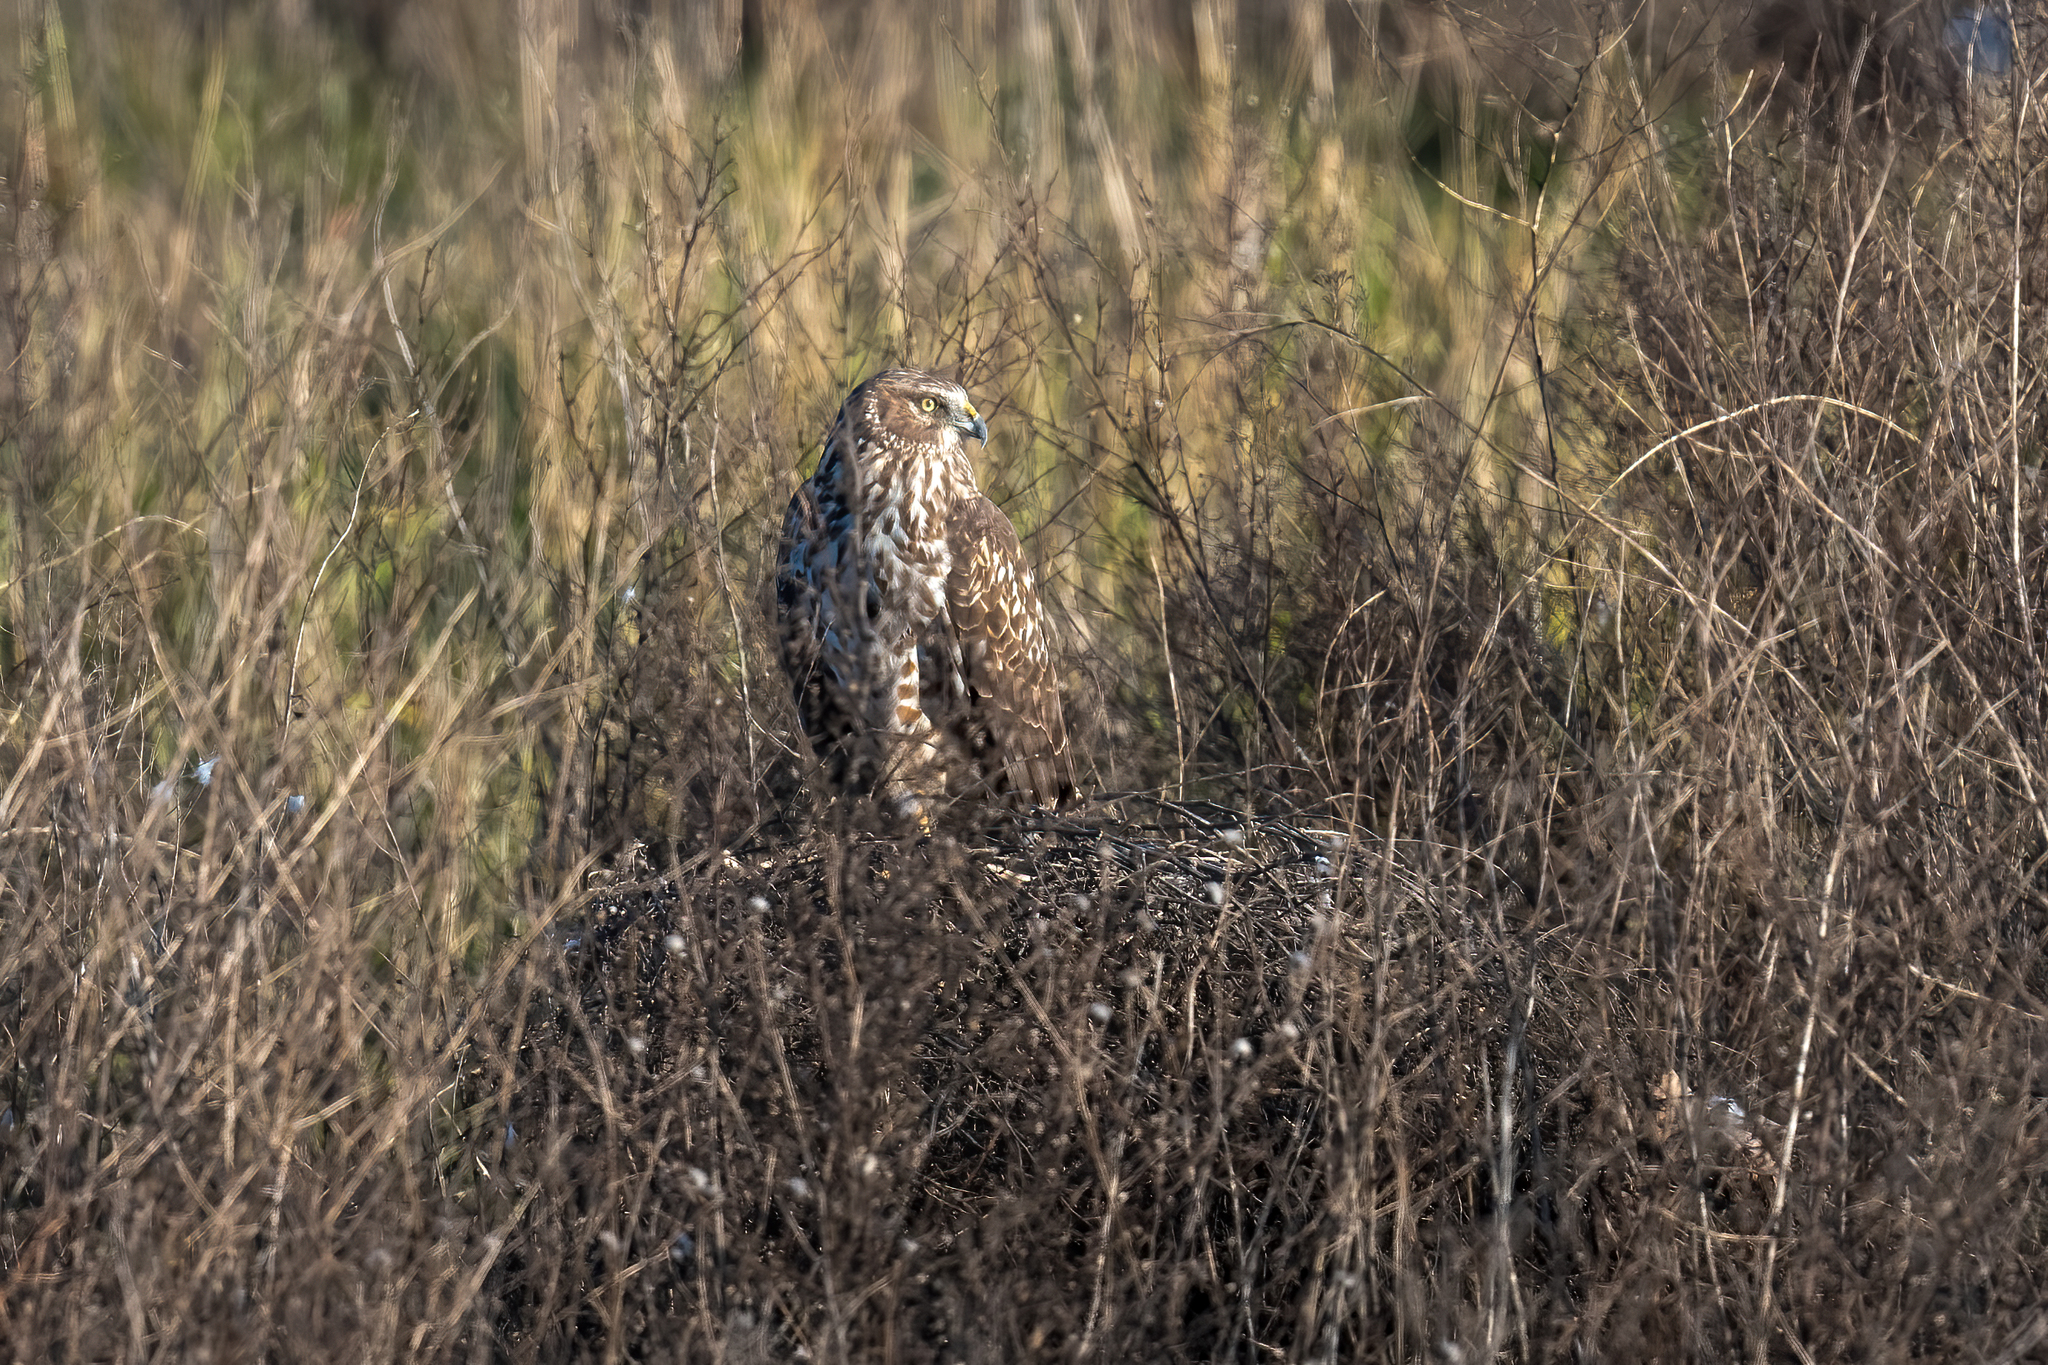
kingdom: Animalia
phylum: Chordata
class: Aves
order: Accipitriformes
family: Accipitridae
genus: Circus
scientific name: Circus cyaneus
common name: Hen harrier
